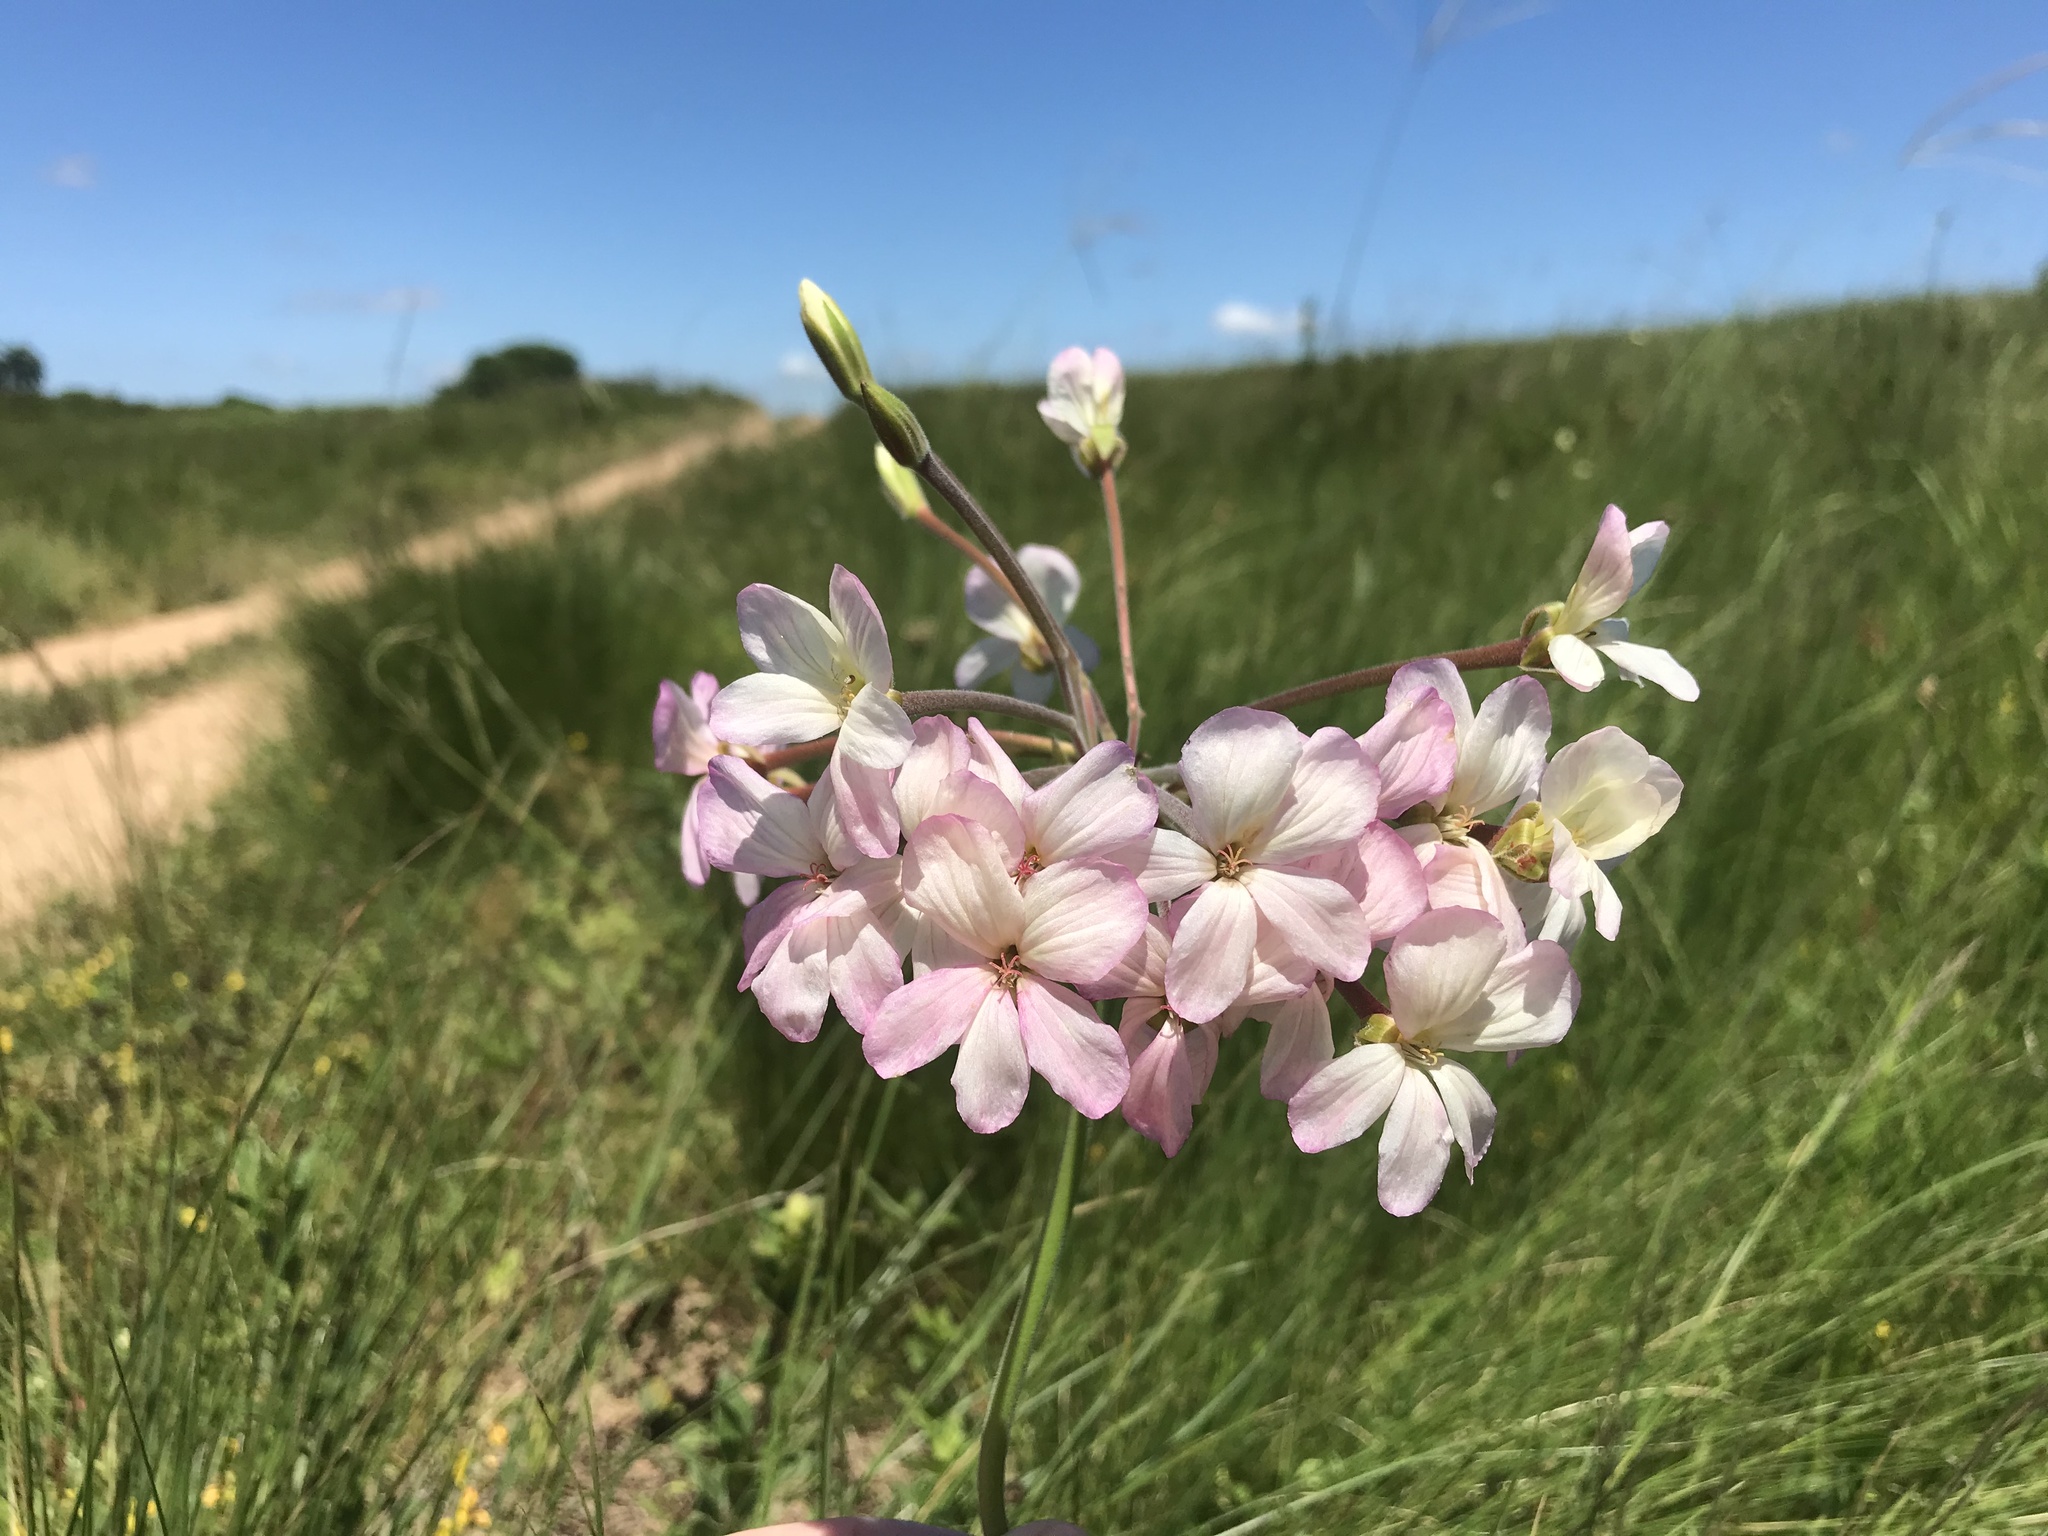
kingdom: Plantae
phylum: Tracheophyta
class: Magnoliopsida
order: Geraniales
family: Geraniaceae
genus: Pelargonium
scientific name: Pelargonium luridum
